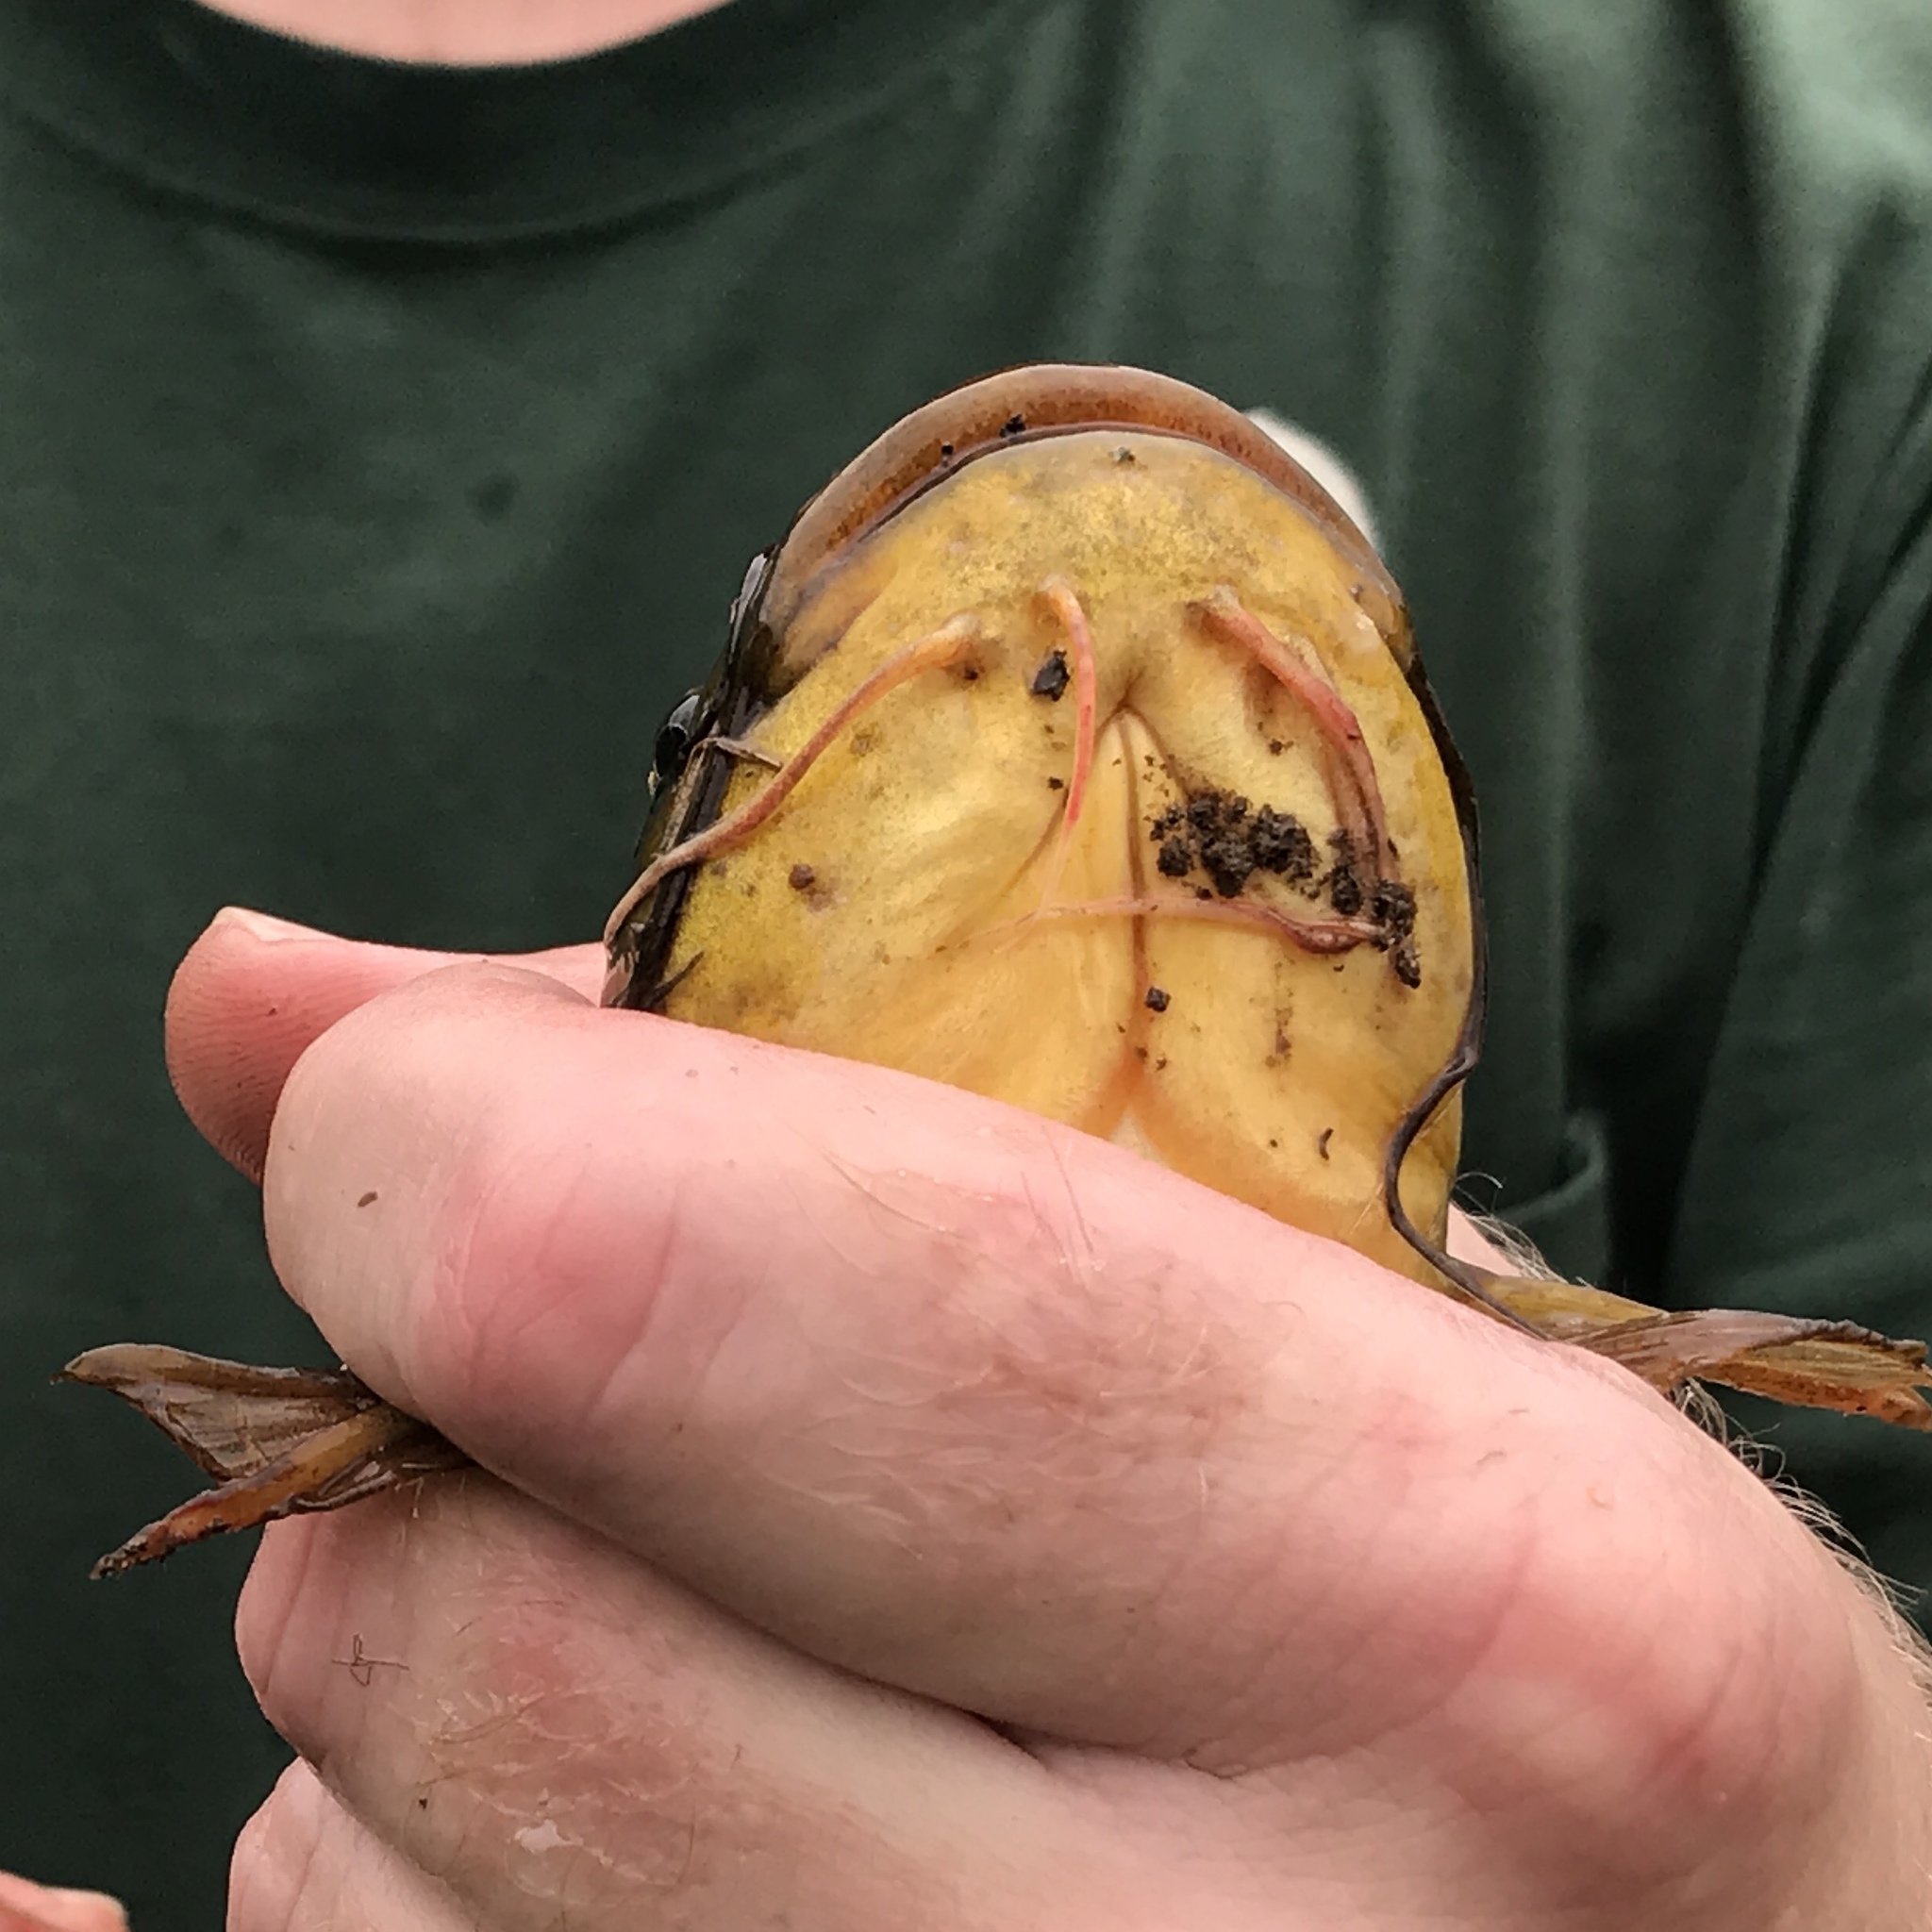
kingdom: Animalia
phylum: Chordata
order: Siluriformes
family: Ictaluridae
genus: Ameiurus
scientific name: Ameiurus natalis
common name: Yellow bullhead
